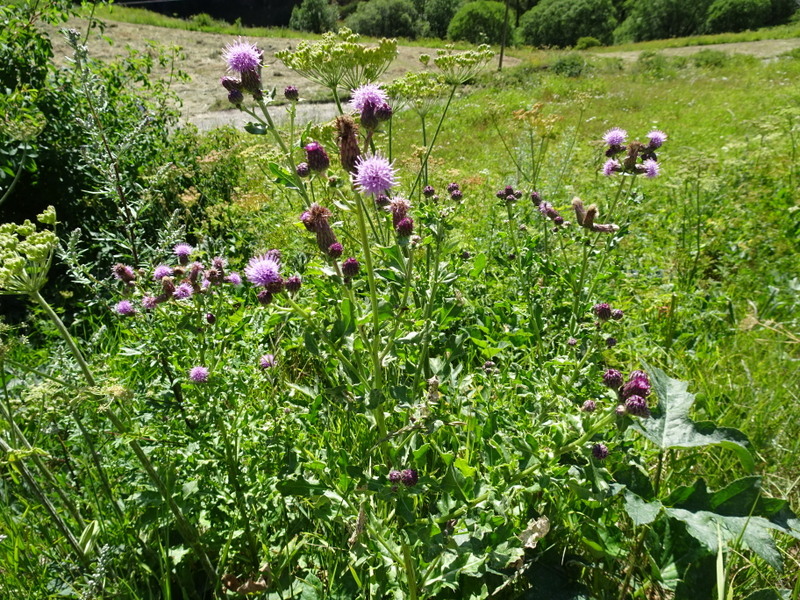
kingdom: Plantae
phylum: Tracheophyta
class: Magnoliopsida
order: Asterales
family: Asteraceae
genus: Cirsium
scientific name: Cirsium arvense
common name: Creeping thistle
